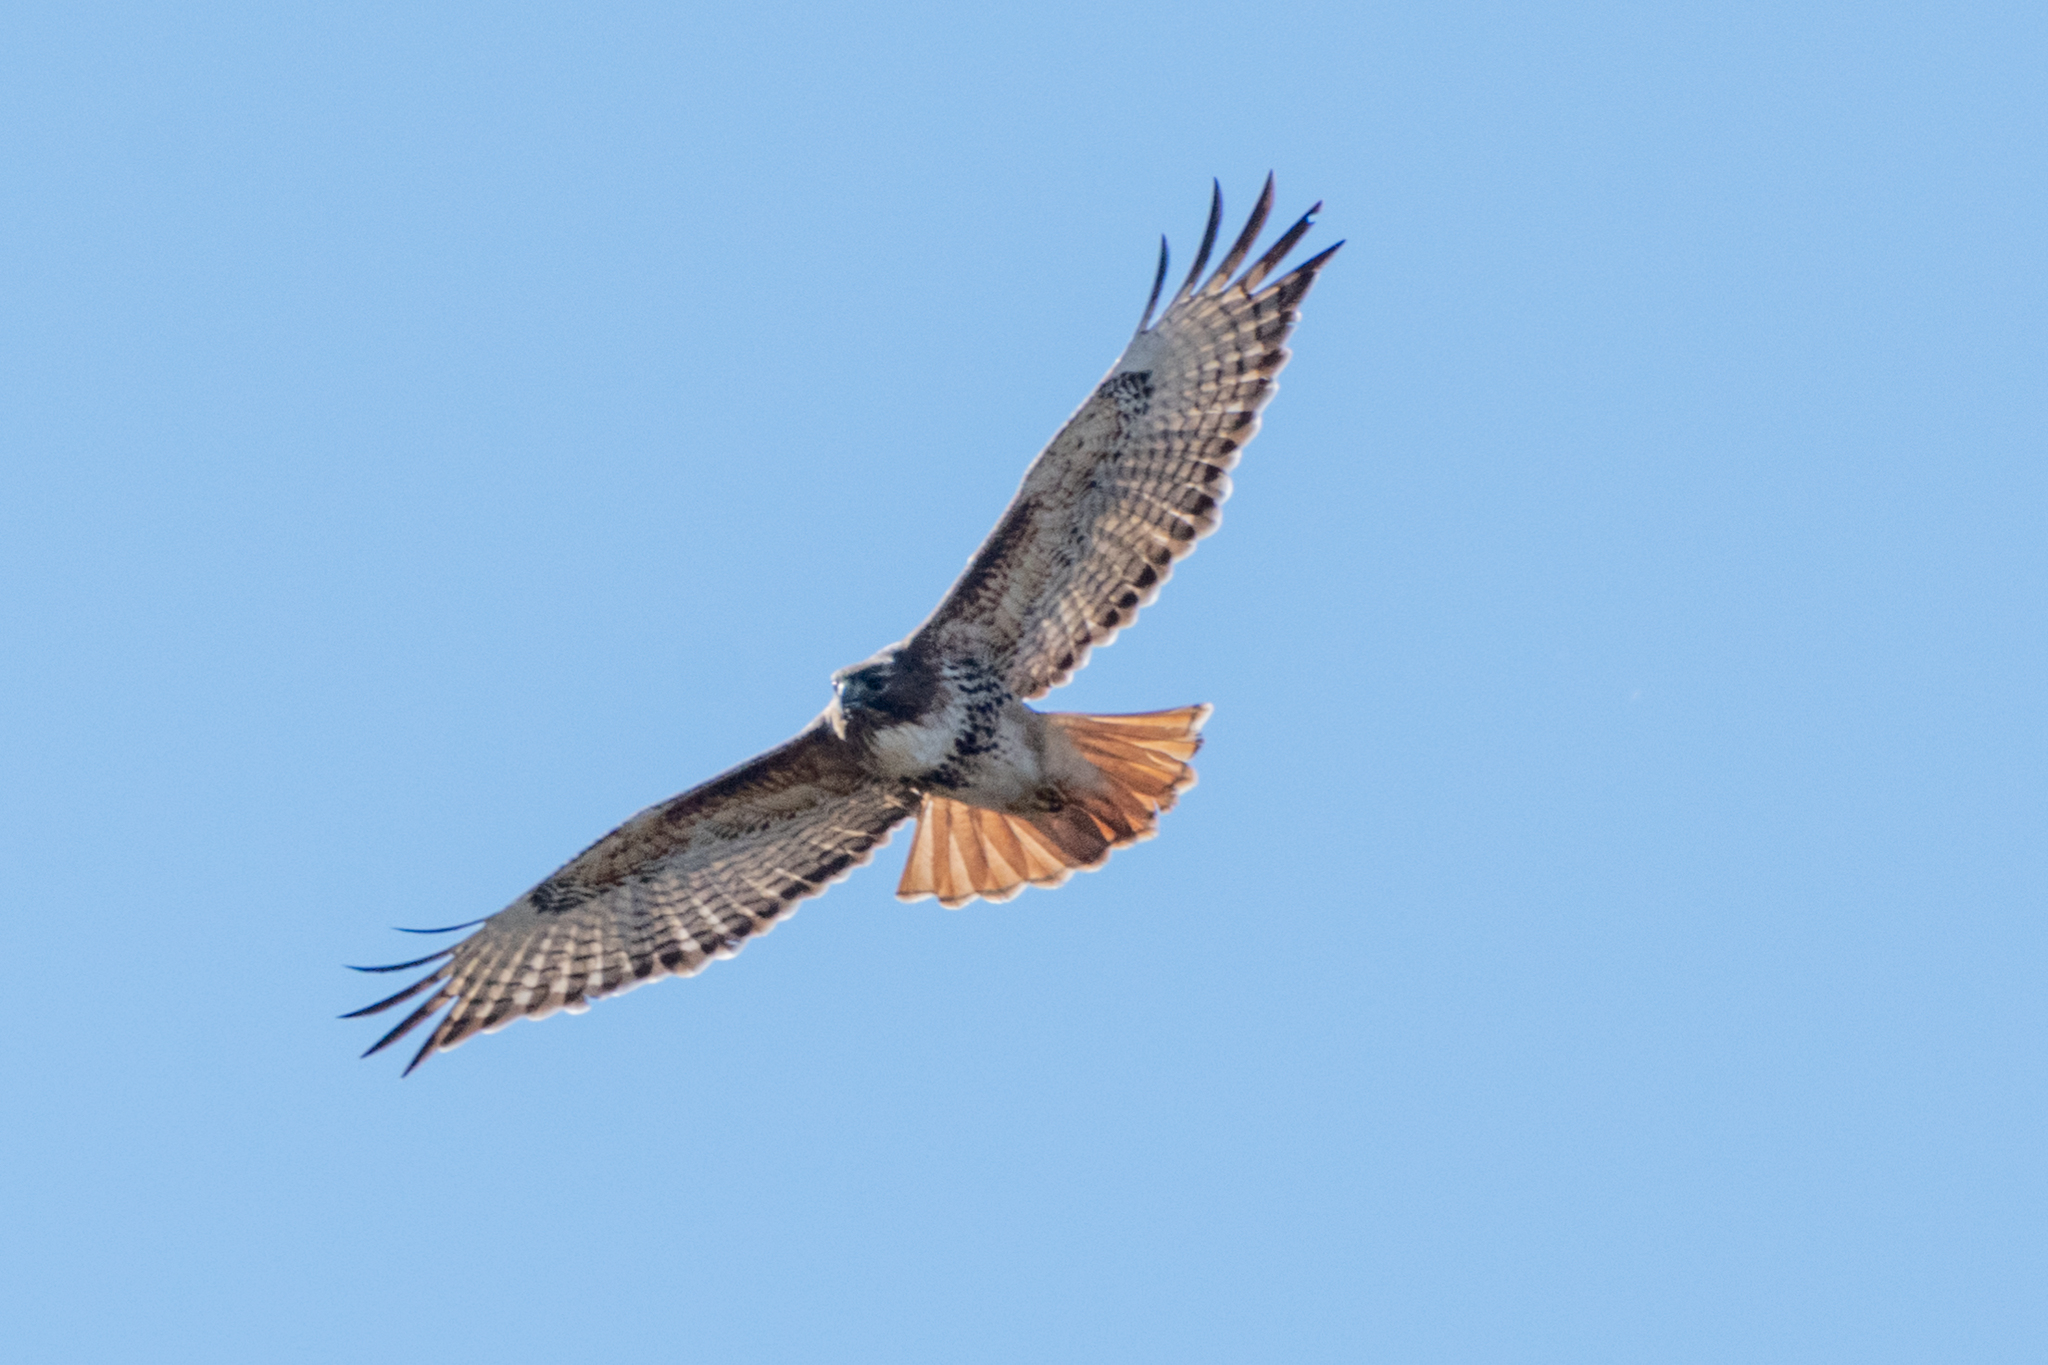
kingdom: Animalia
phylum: Chordata
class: Aves
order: Accipitriformes
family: Accipitridae
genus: Buteo
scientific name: Buteo jamaicensis
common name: Red-tailed hawk
